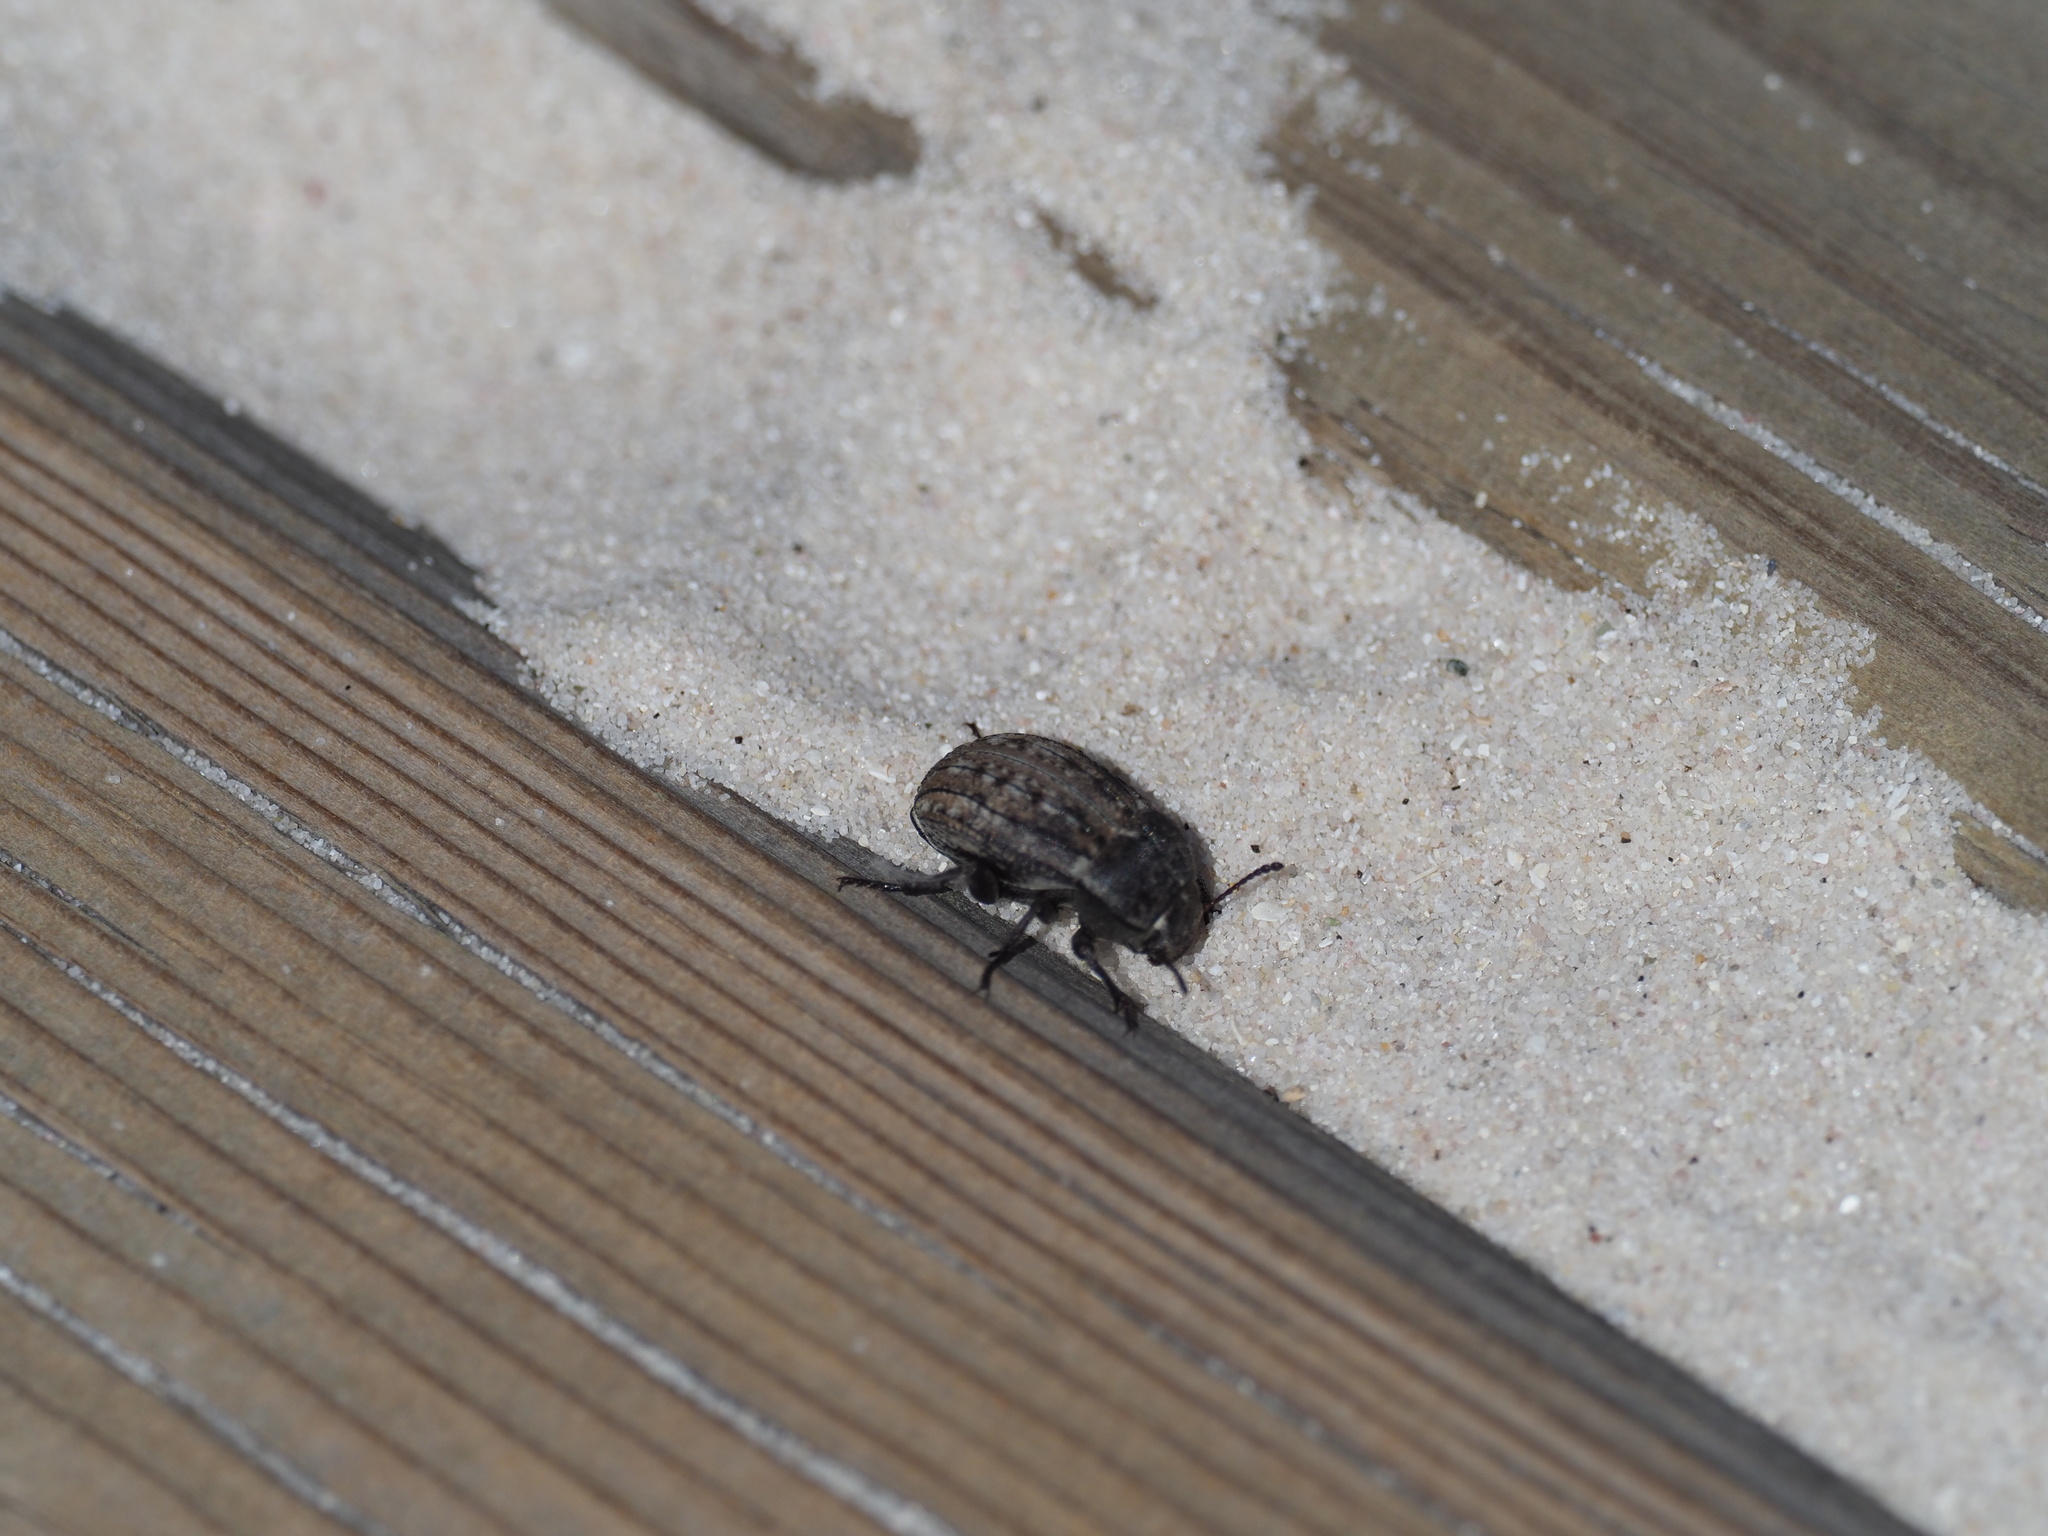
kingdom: Animalia
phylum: Arthropoda
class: Insecta
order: Coleoptera
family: Tenebrionidae
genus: Cryptochile
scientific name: Cryptochile
